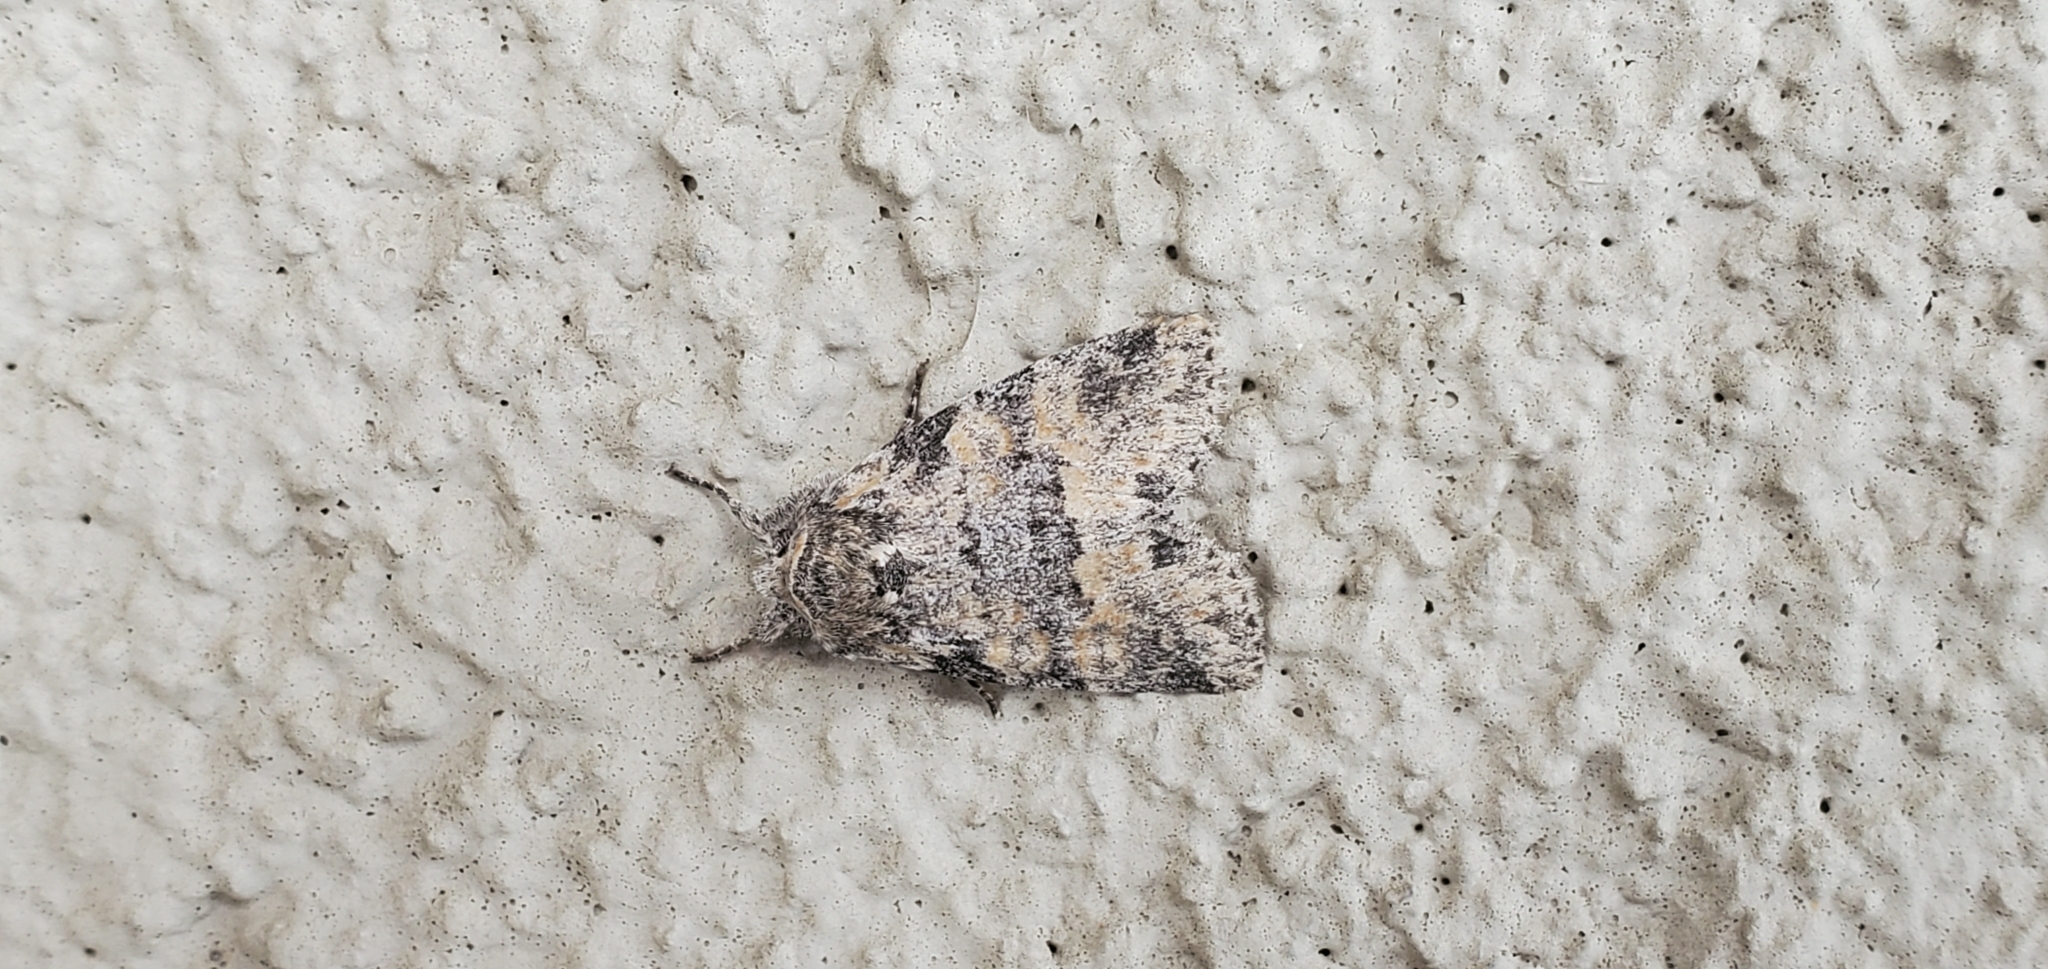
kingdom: Animalia
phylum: Arthropoda
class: Insecta
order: Lepidoptera
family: Noctuidae
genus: Brachylomia
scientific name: Brachylomia populi
